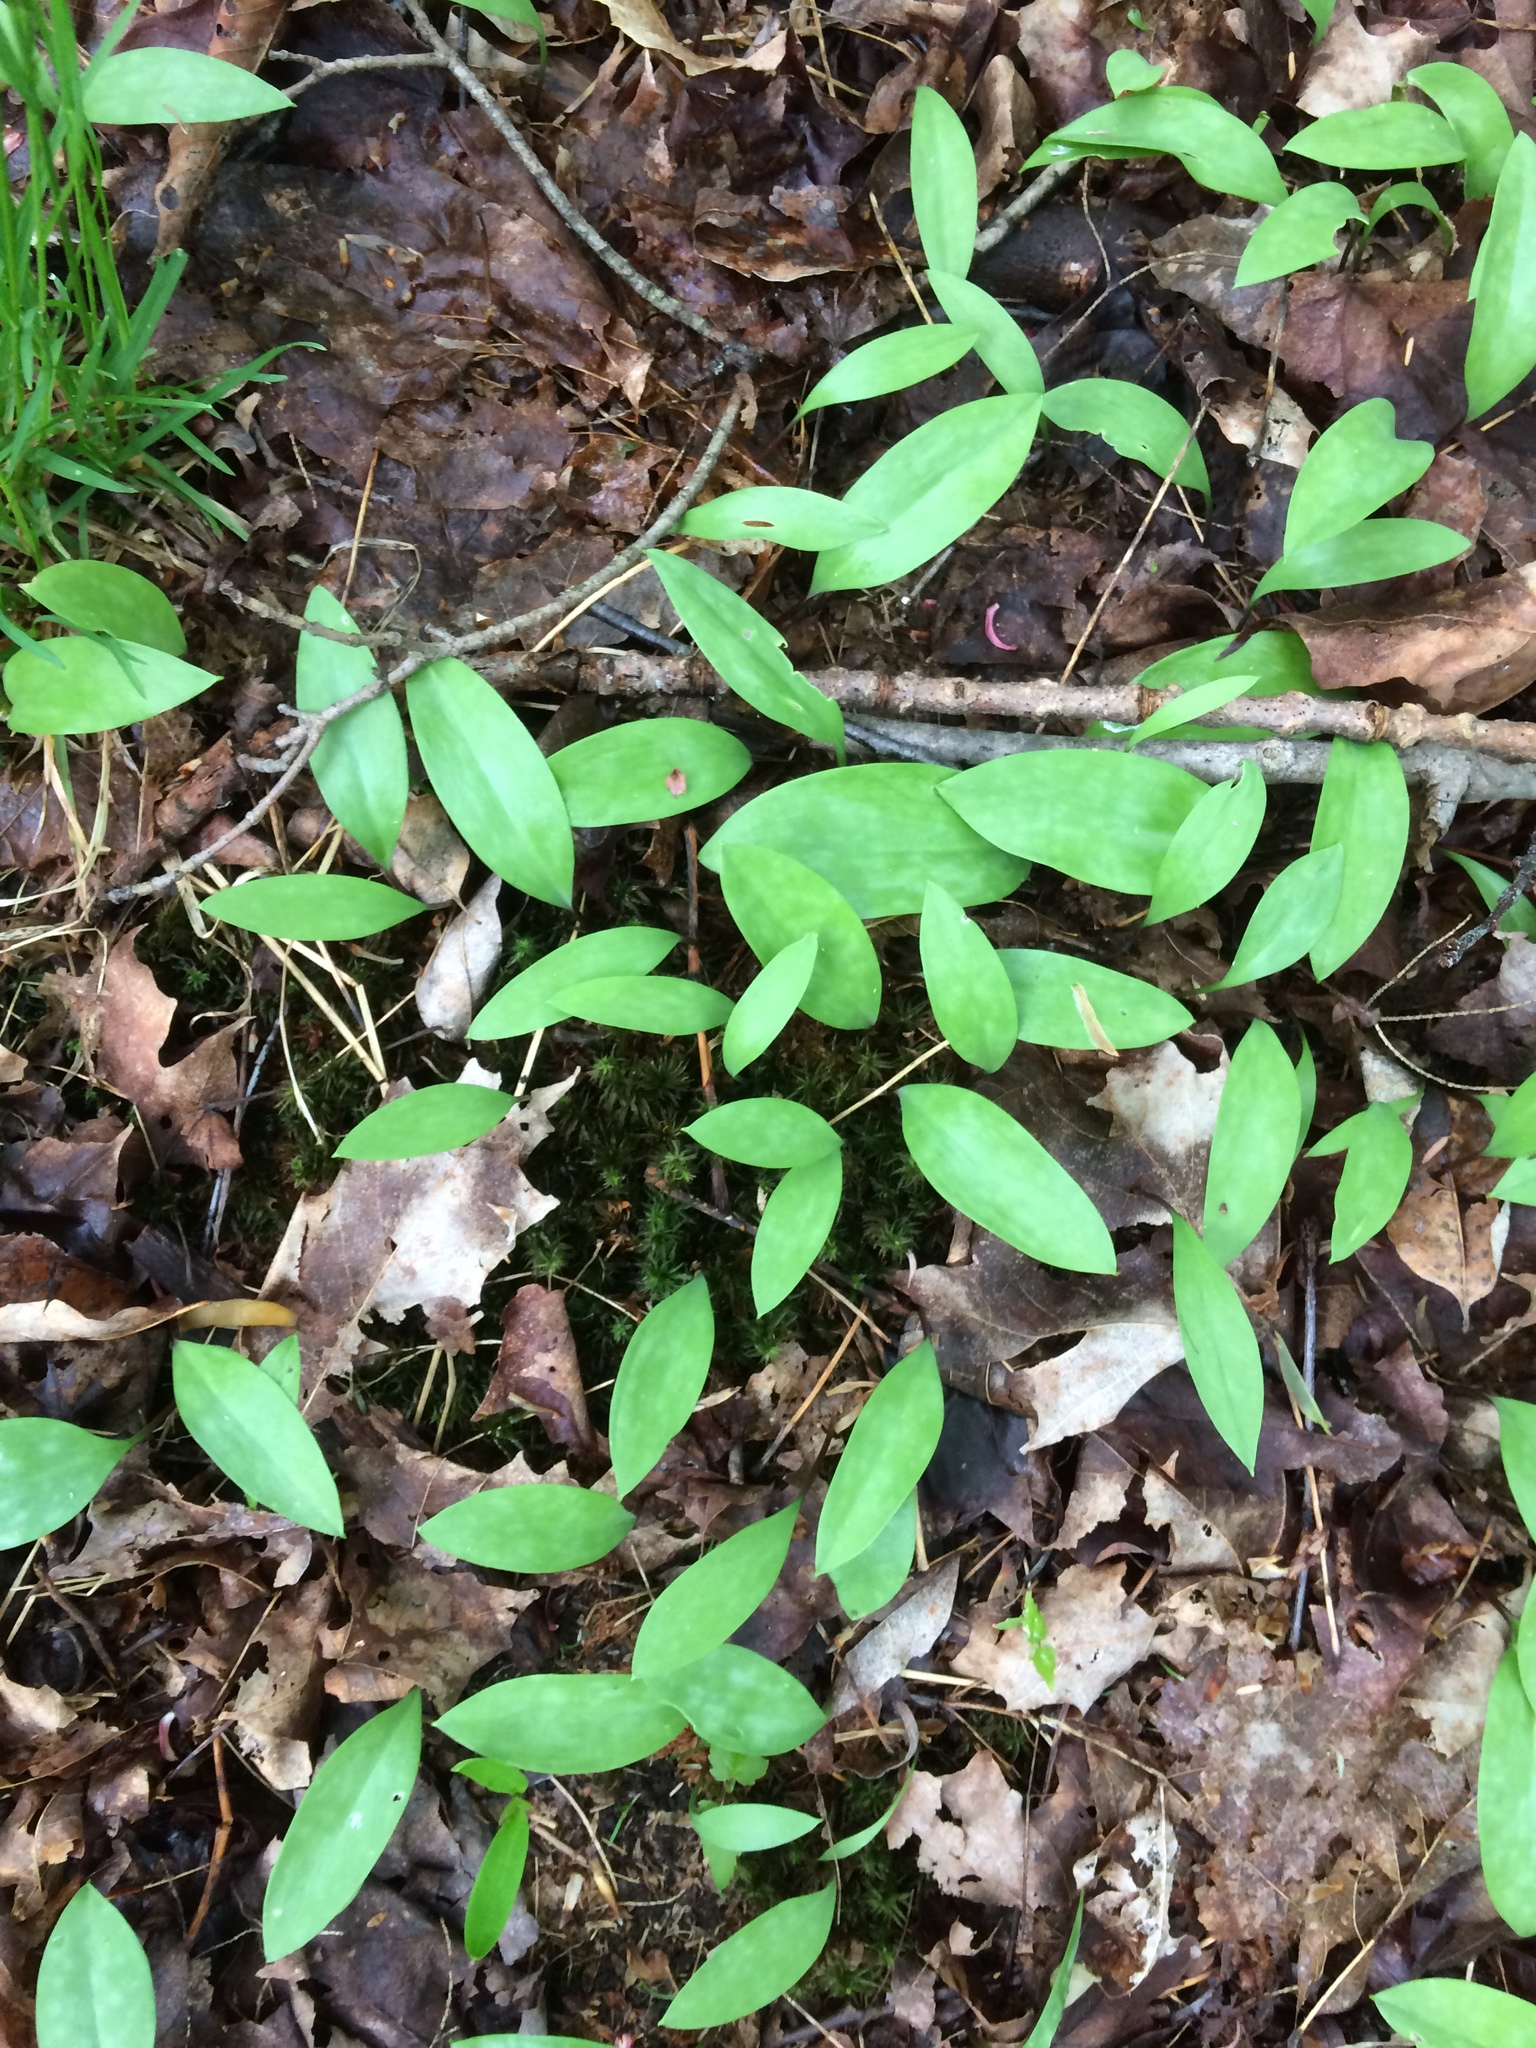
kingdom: Plantae
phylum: Tracheophyta
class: Liliopsida
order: Liliales
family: Liliaceae
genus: Erythronium
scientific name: Erythronium americanum
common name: Yellow adder's-tongue
